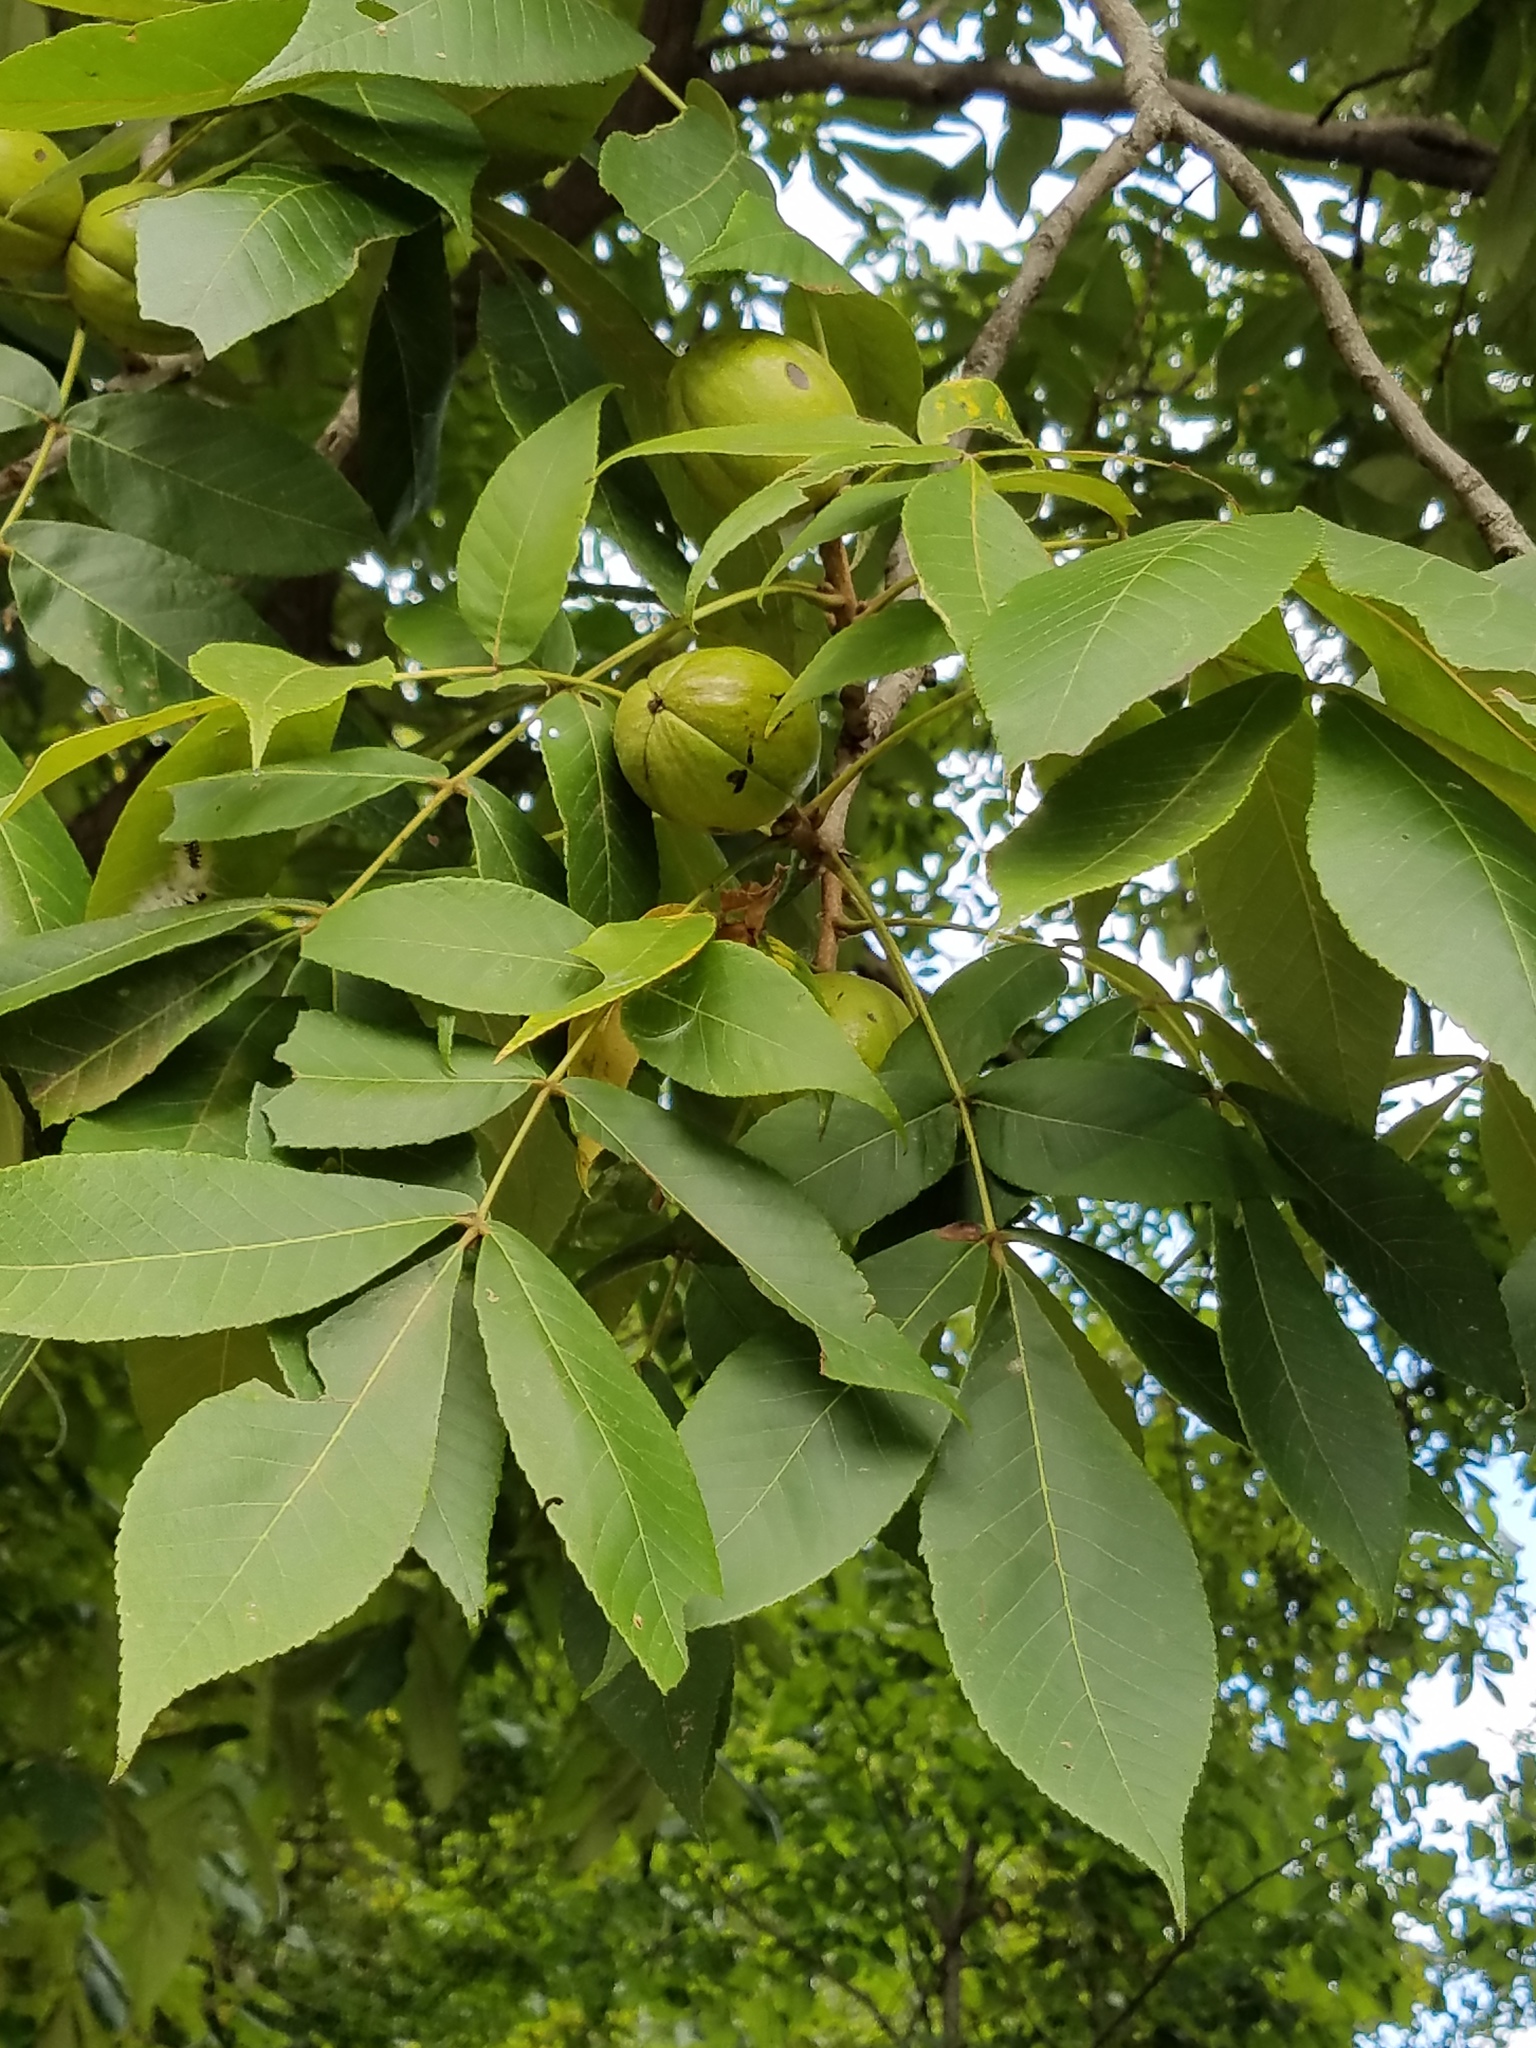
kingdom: Plantae
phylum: Tracheophyta
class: Magnoliopsida
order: Fagales
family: Juglandaceae
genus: Carya
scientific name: Carya laciniosa
